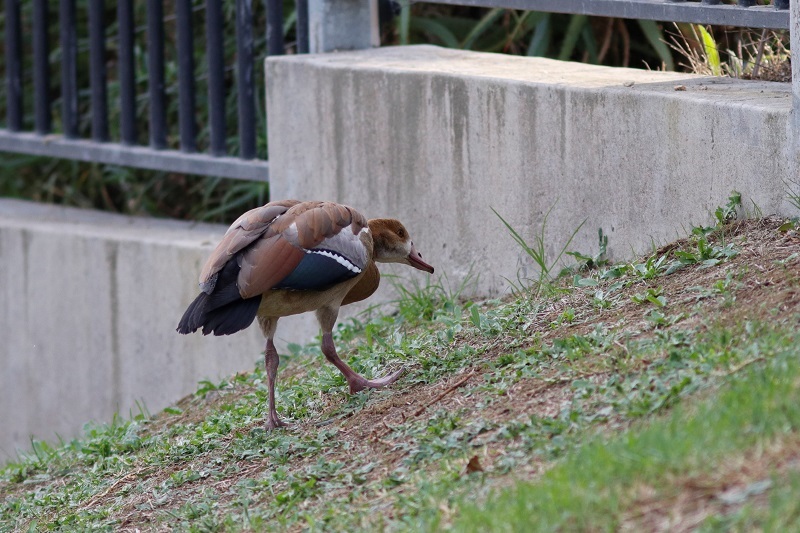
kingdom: Animalia
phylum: Chordata
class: Aves
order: Anseriformes
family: Anatidae
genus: Alopochen
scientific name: Alopochen aegyptiaca
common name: Egyptian goose
